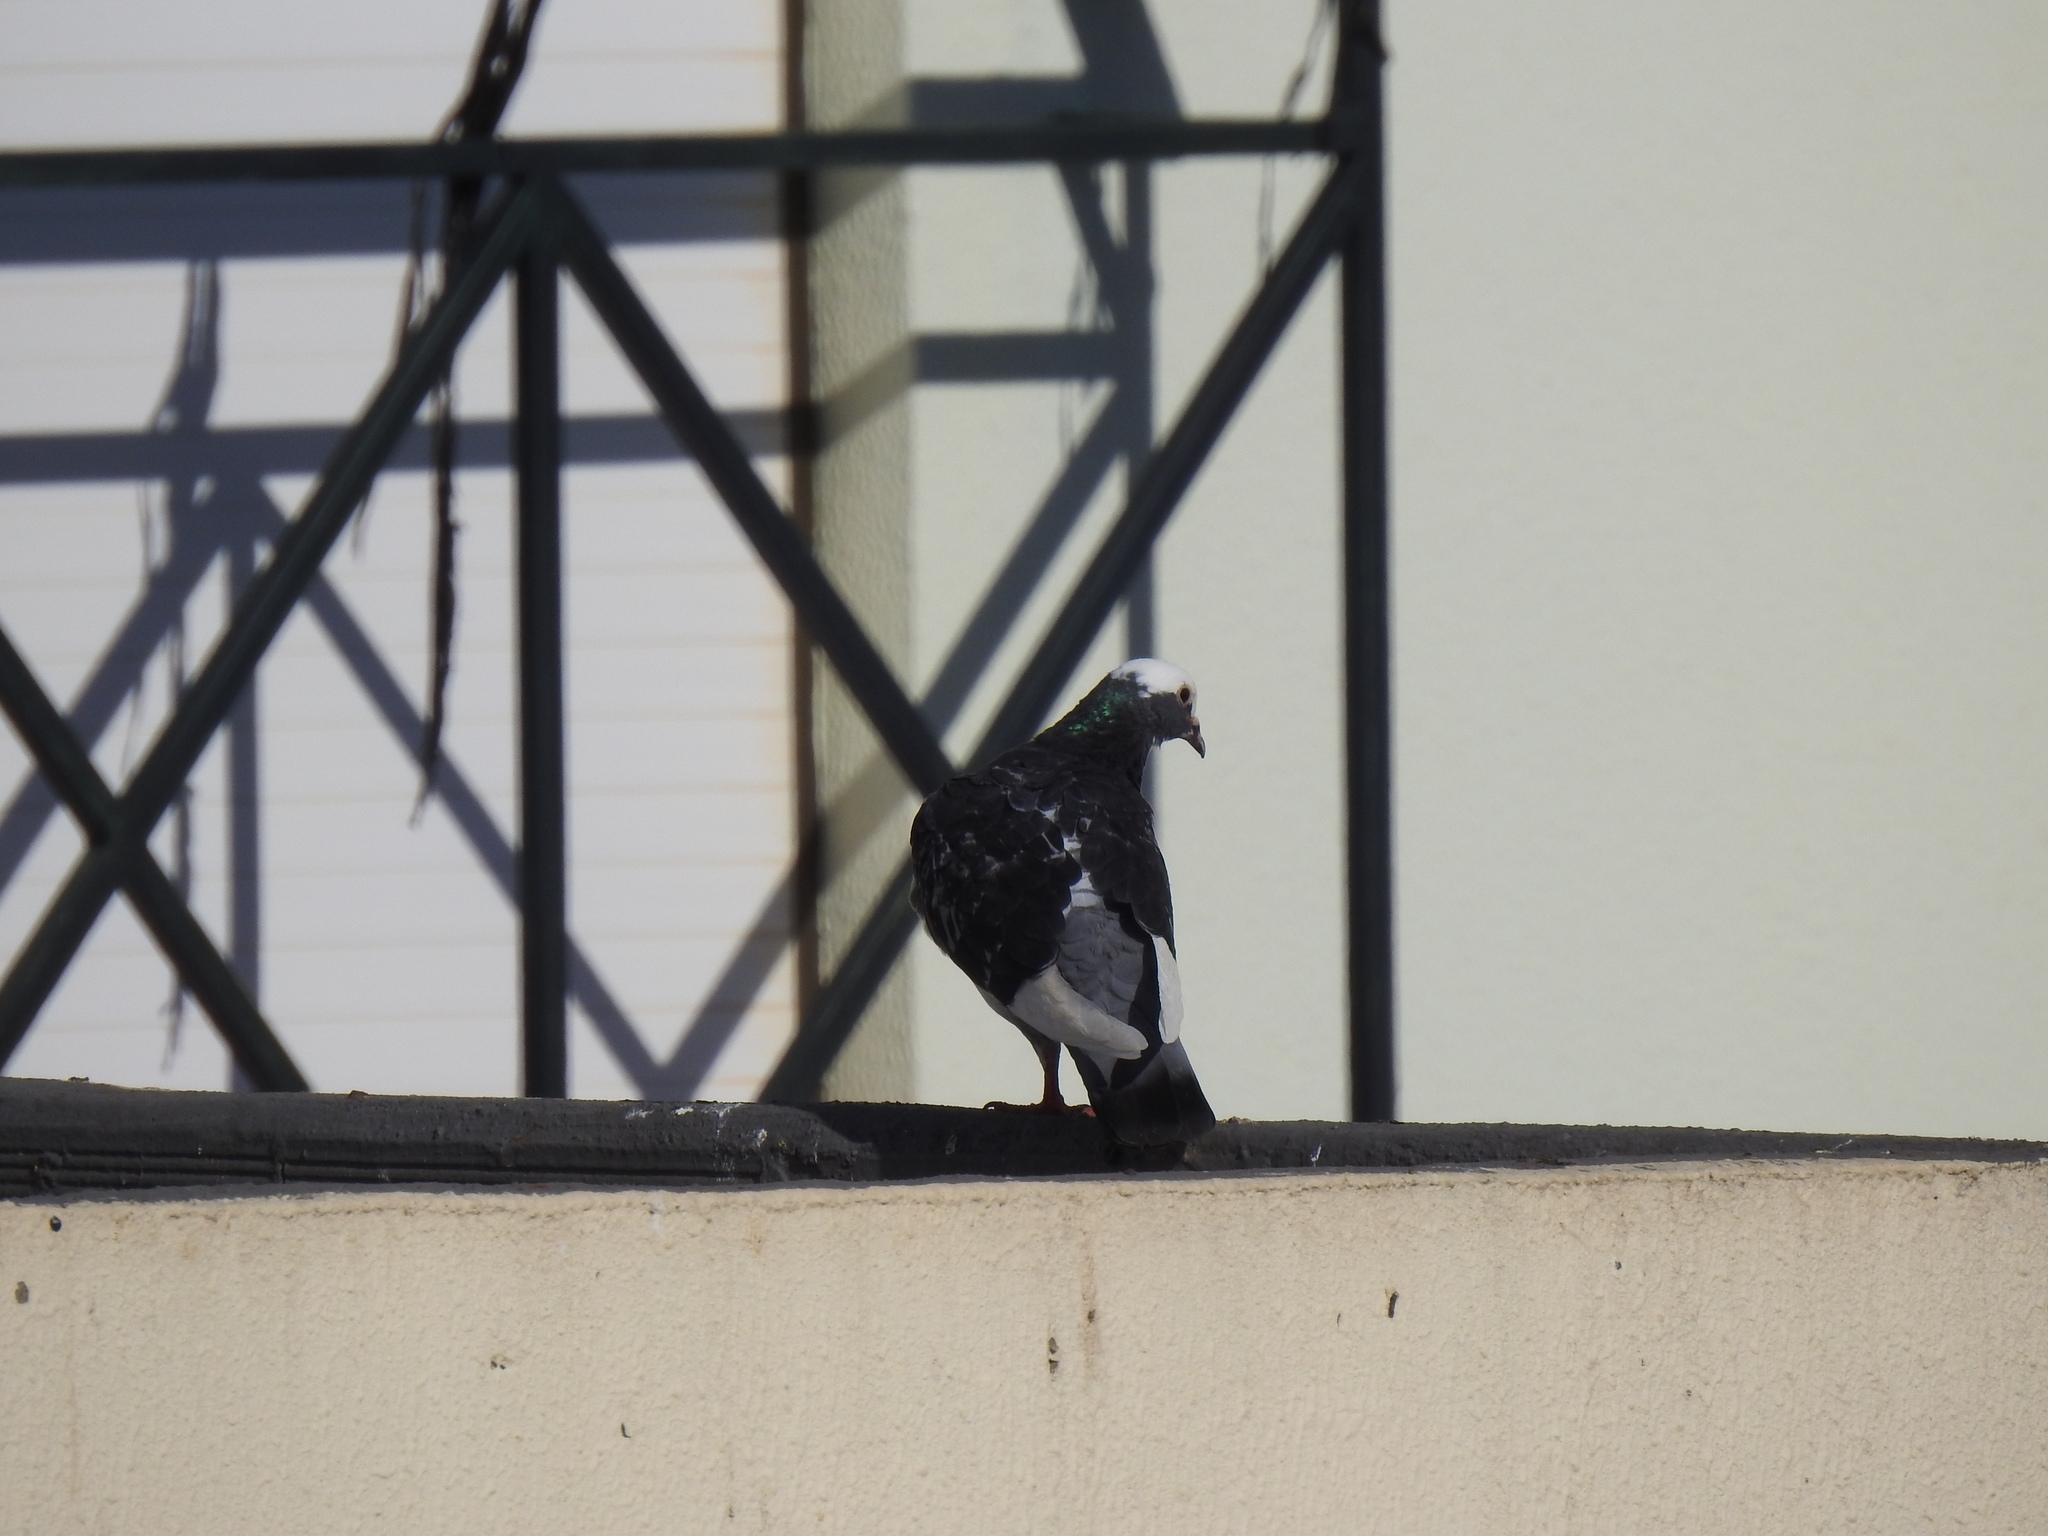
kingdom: Animalia
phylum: Chordata
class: Aves
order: Columbiformes
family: Columbidae
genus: Columba
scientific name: Columba livia
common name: Rock pigeon
